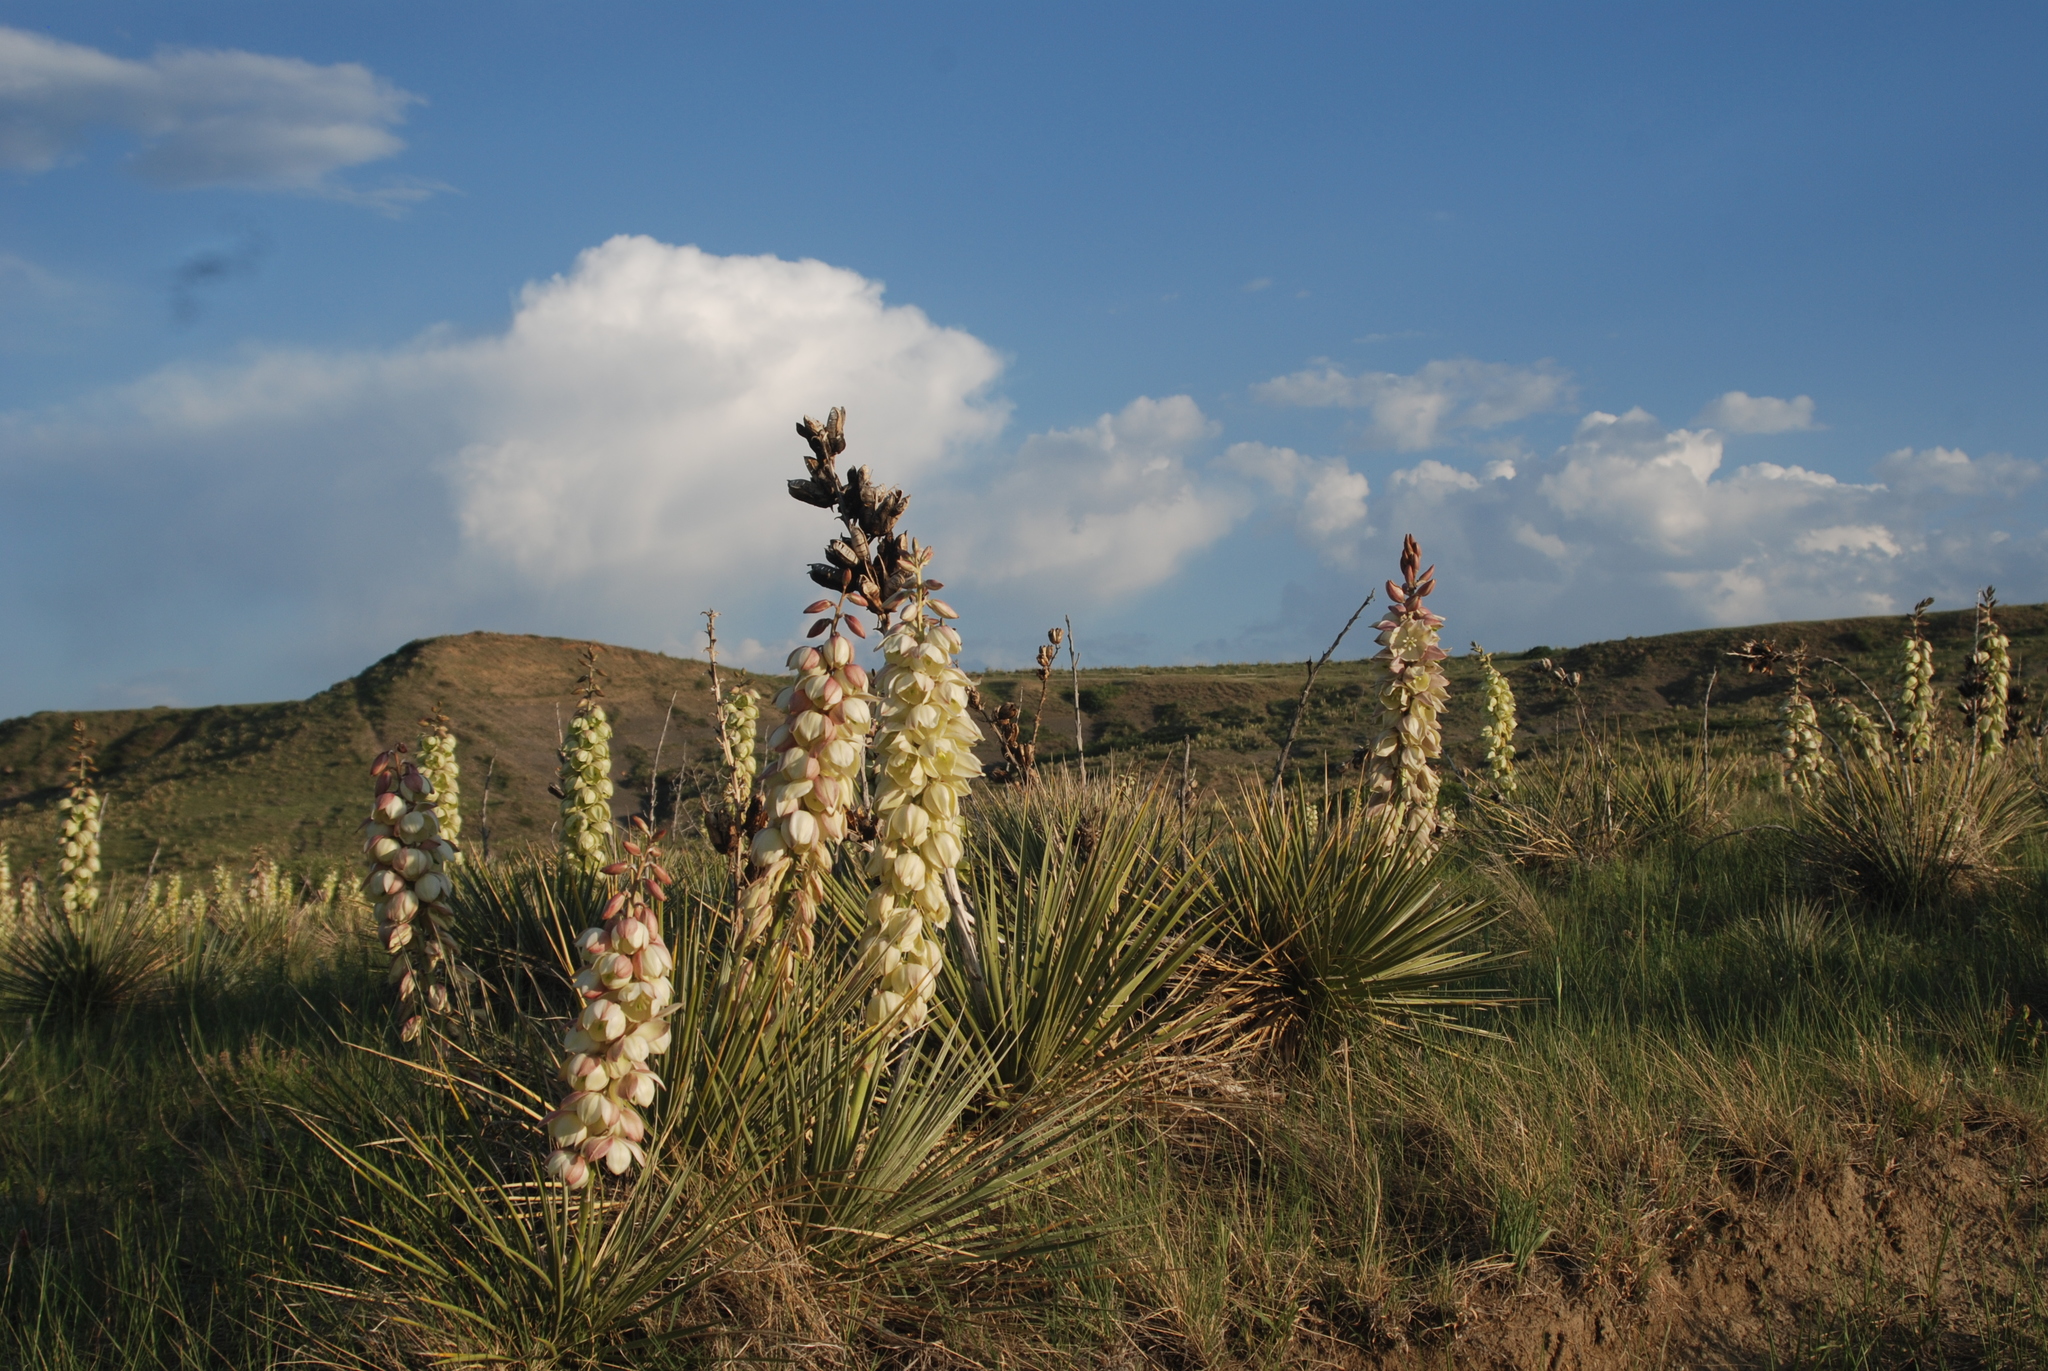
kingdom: Plantae
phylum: Tracheophyta
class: Liliopsida
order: Asparagales
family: Asparagaceae
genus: Yucca
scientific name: Yucca glauca
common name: Great plains yucca
